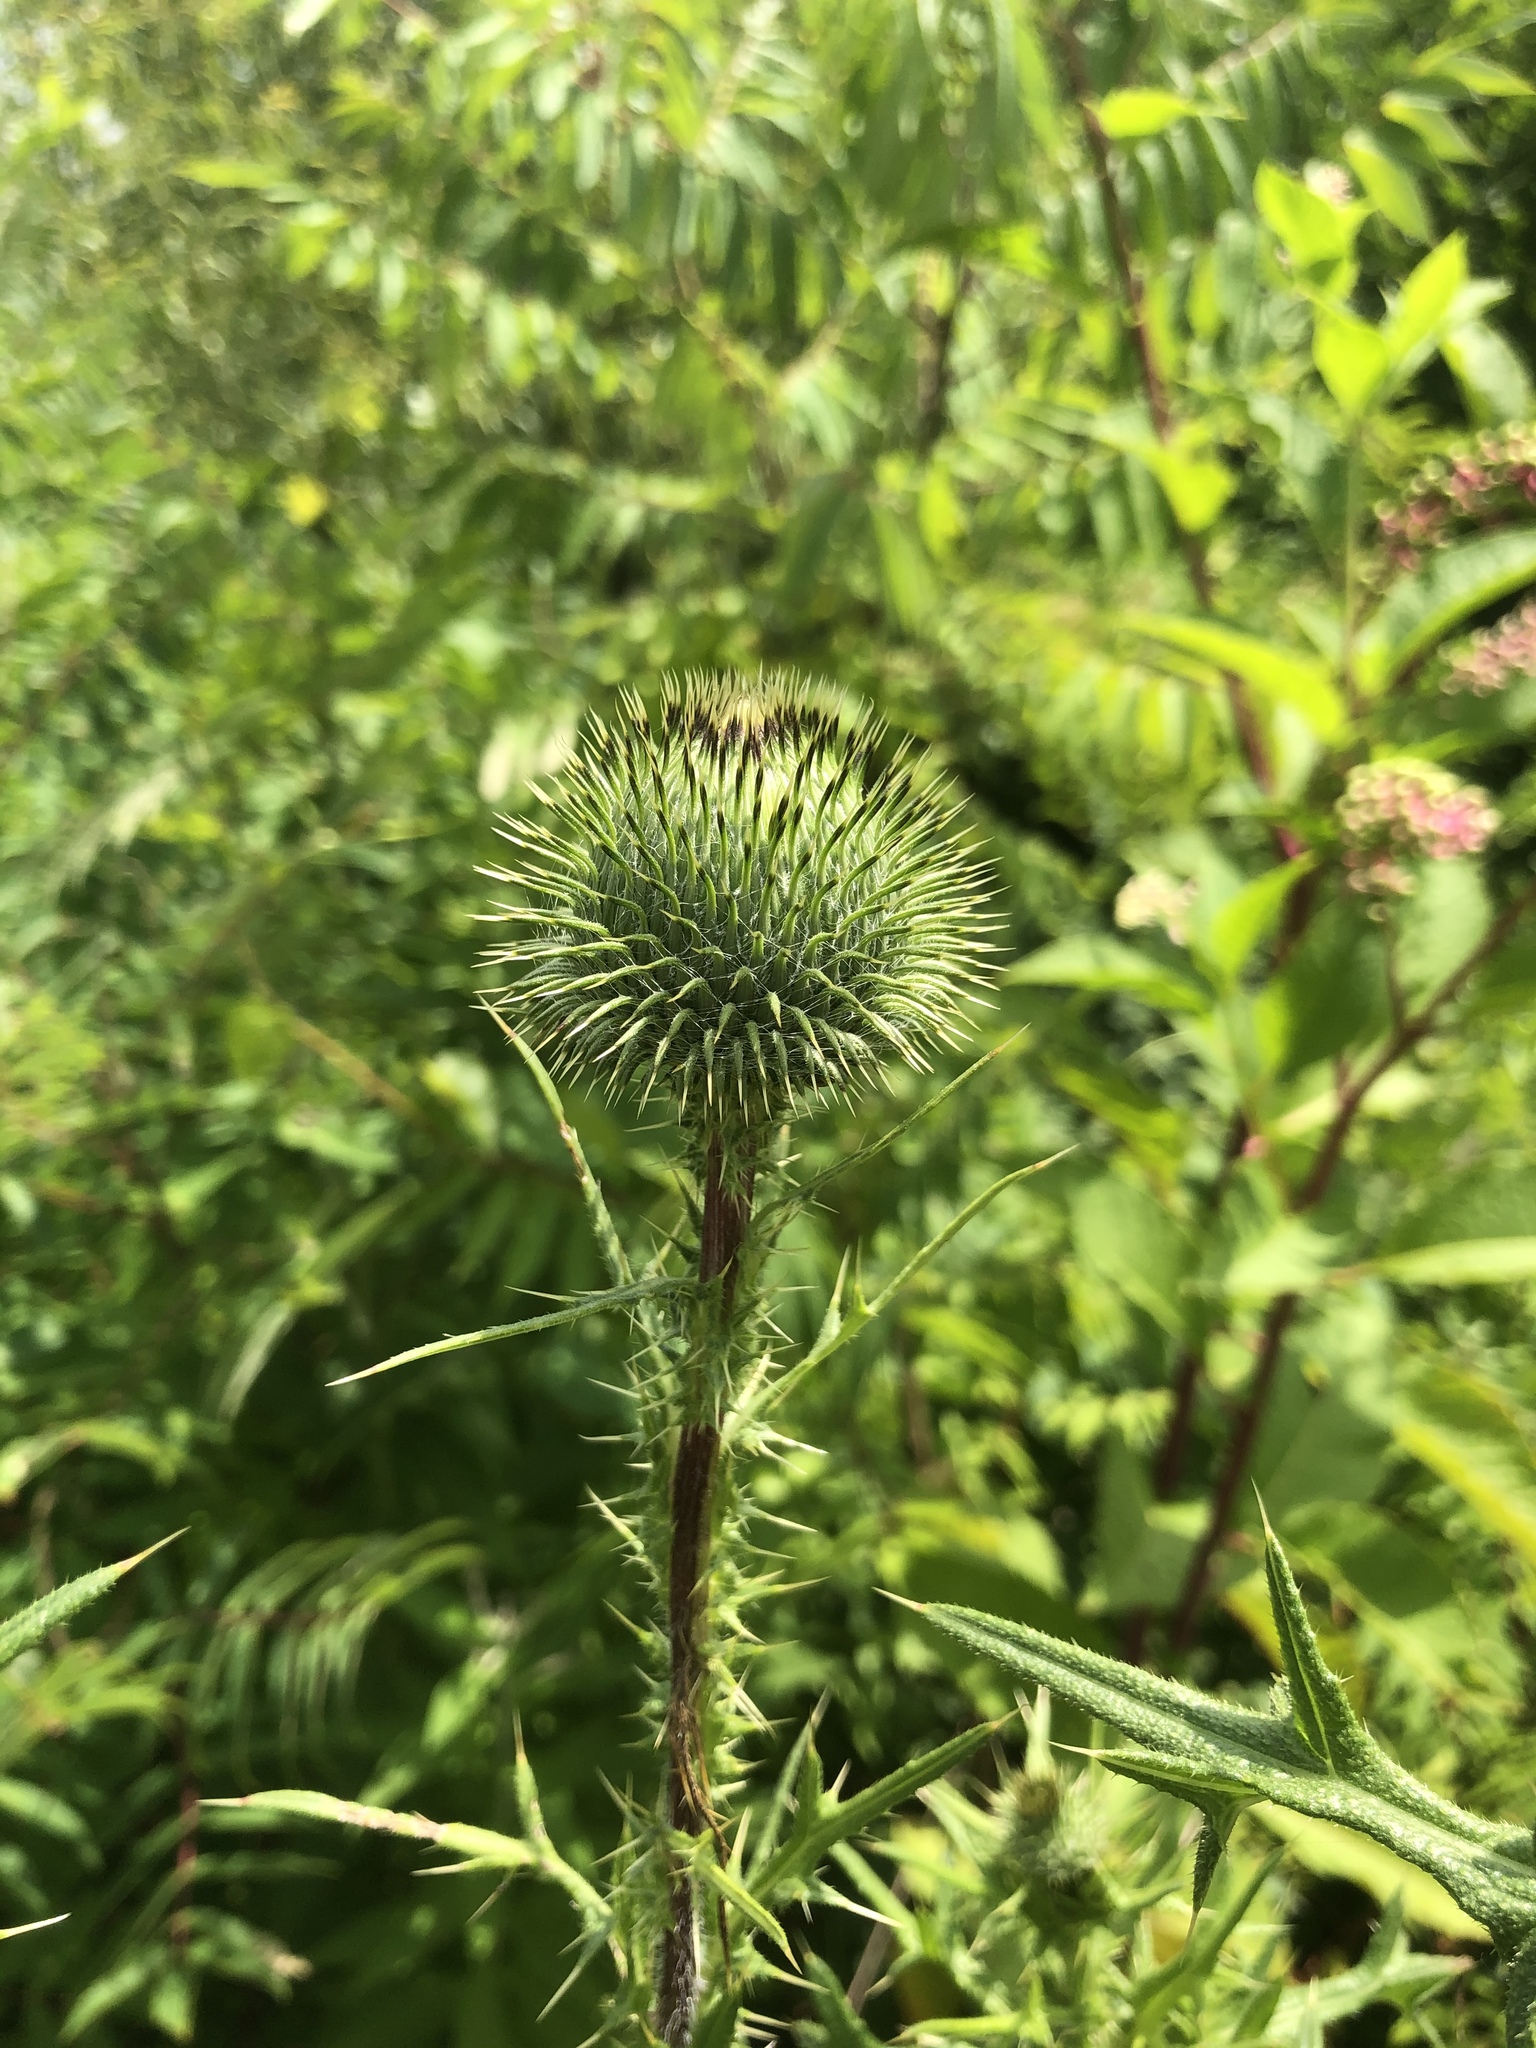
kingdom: Plantae
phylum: Tracheophyta
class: Magnoliopsida
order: Asterales
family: Asteraceae
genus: Cirsium
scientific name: Cirsium vulgare
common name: Bull thistle
